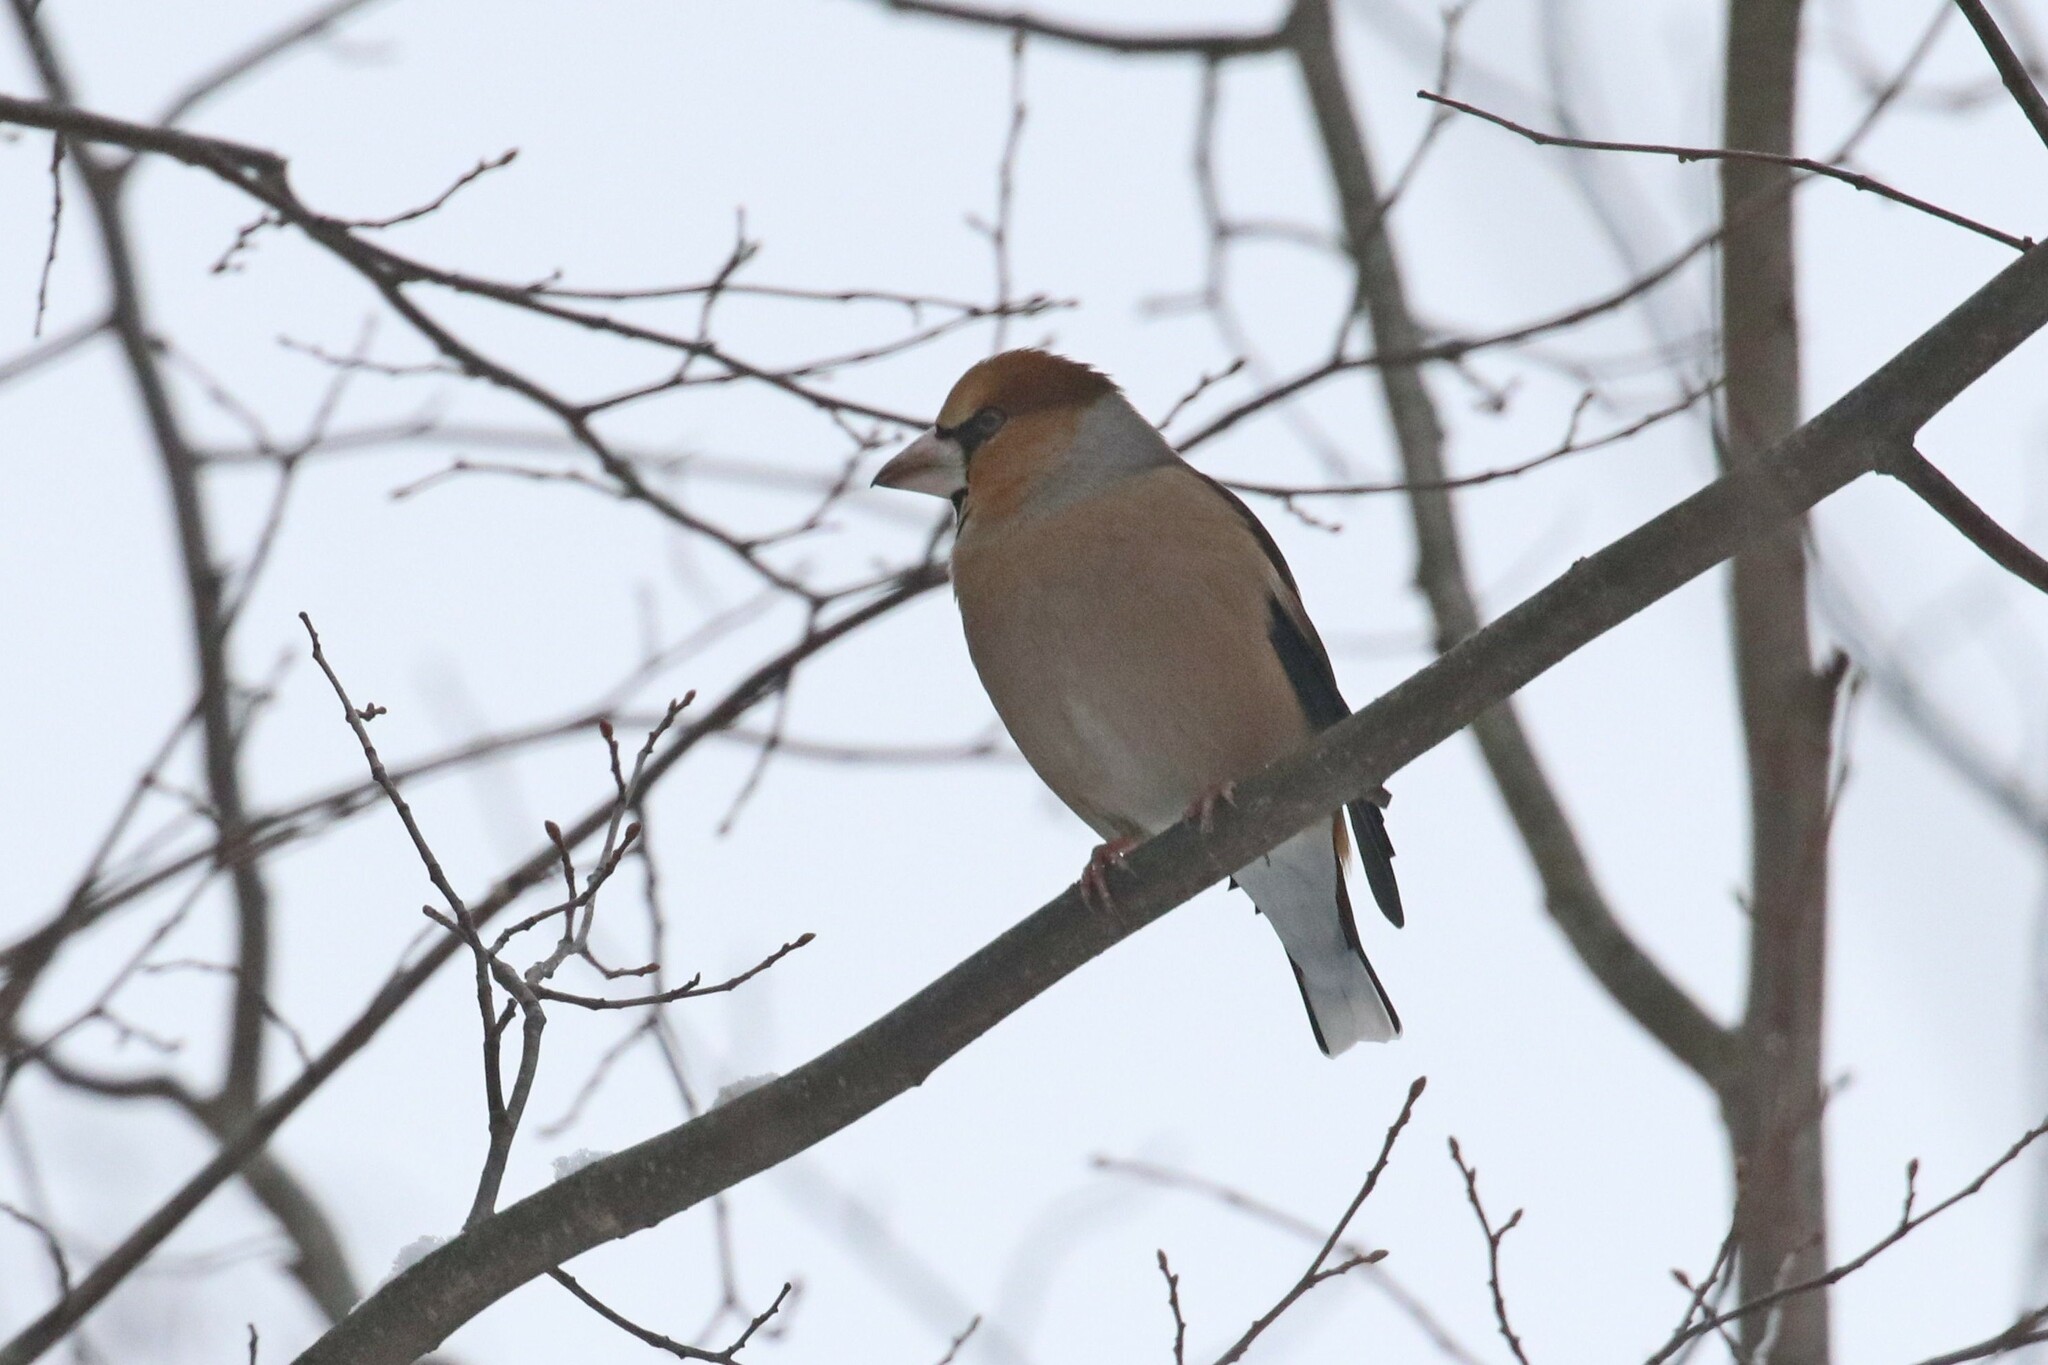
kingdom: Animalia
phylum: Chordata
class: Aves
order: Passeriformes
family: Fringillidae
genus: Coccothraustes
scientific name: Coccothraustes coccothraustes
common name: Hawfinch
